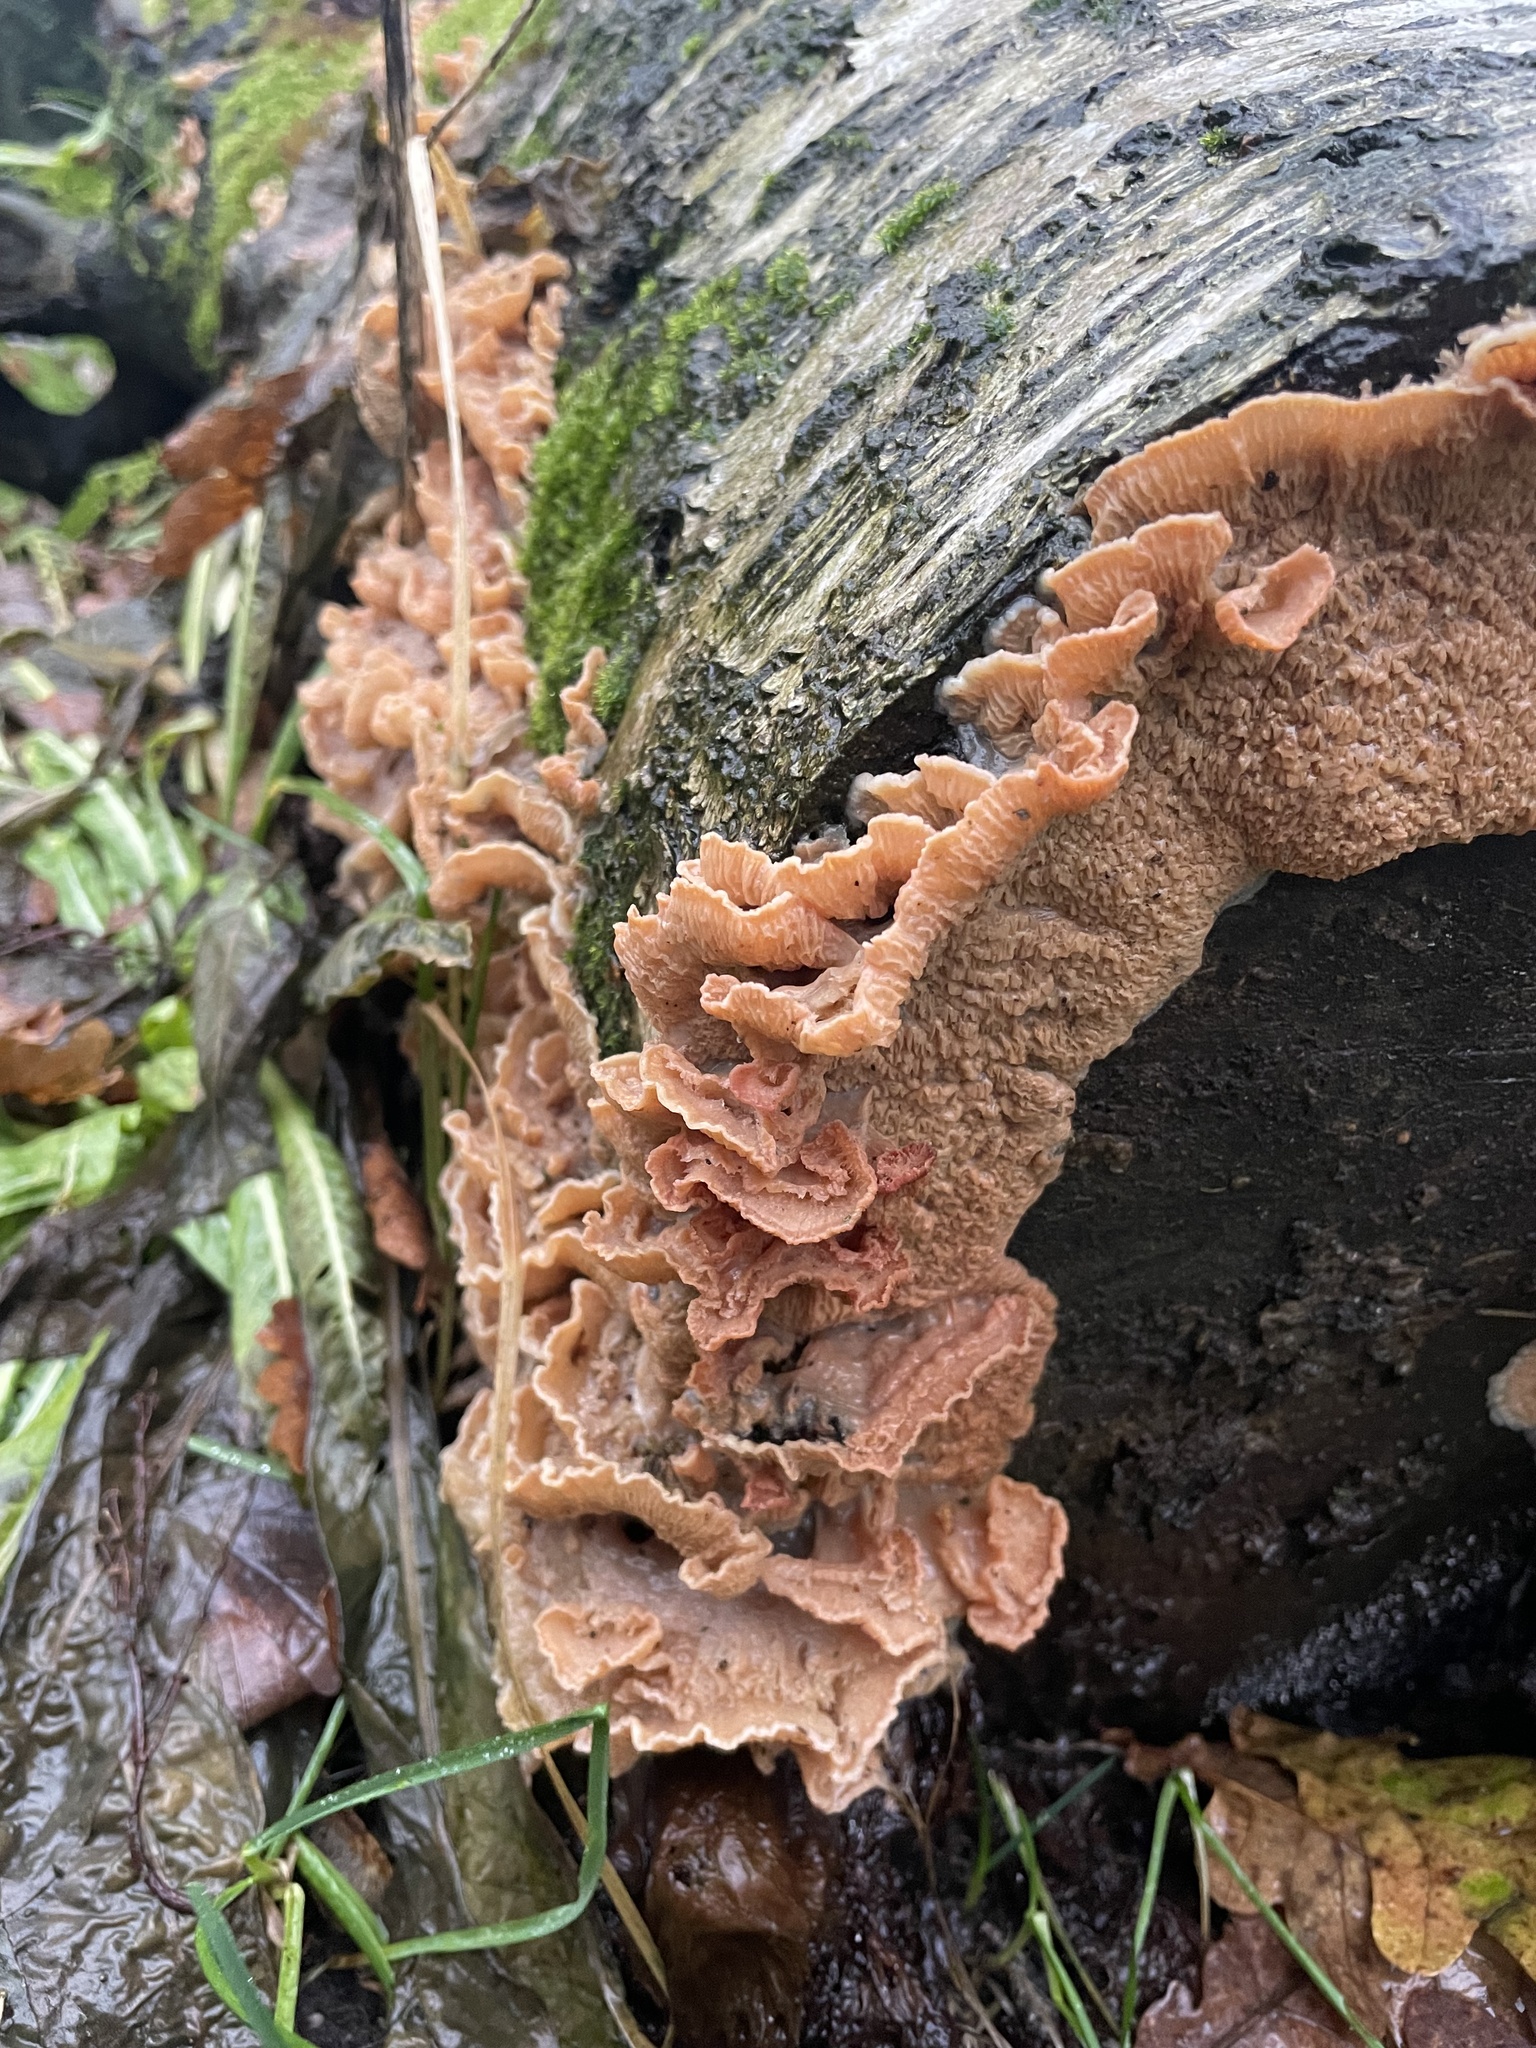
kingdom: Fungi
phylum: Basidiomycota
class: Agaricomycetes
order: Polyporales
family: Meruliaceae
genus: Phlebia
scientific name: Phlebia tremellosa
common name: Jelly rot
